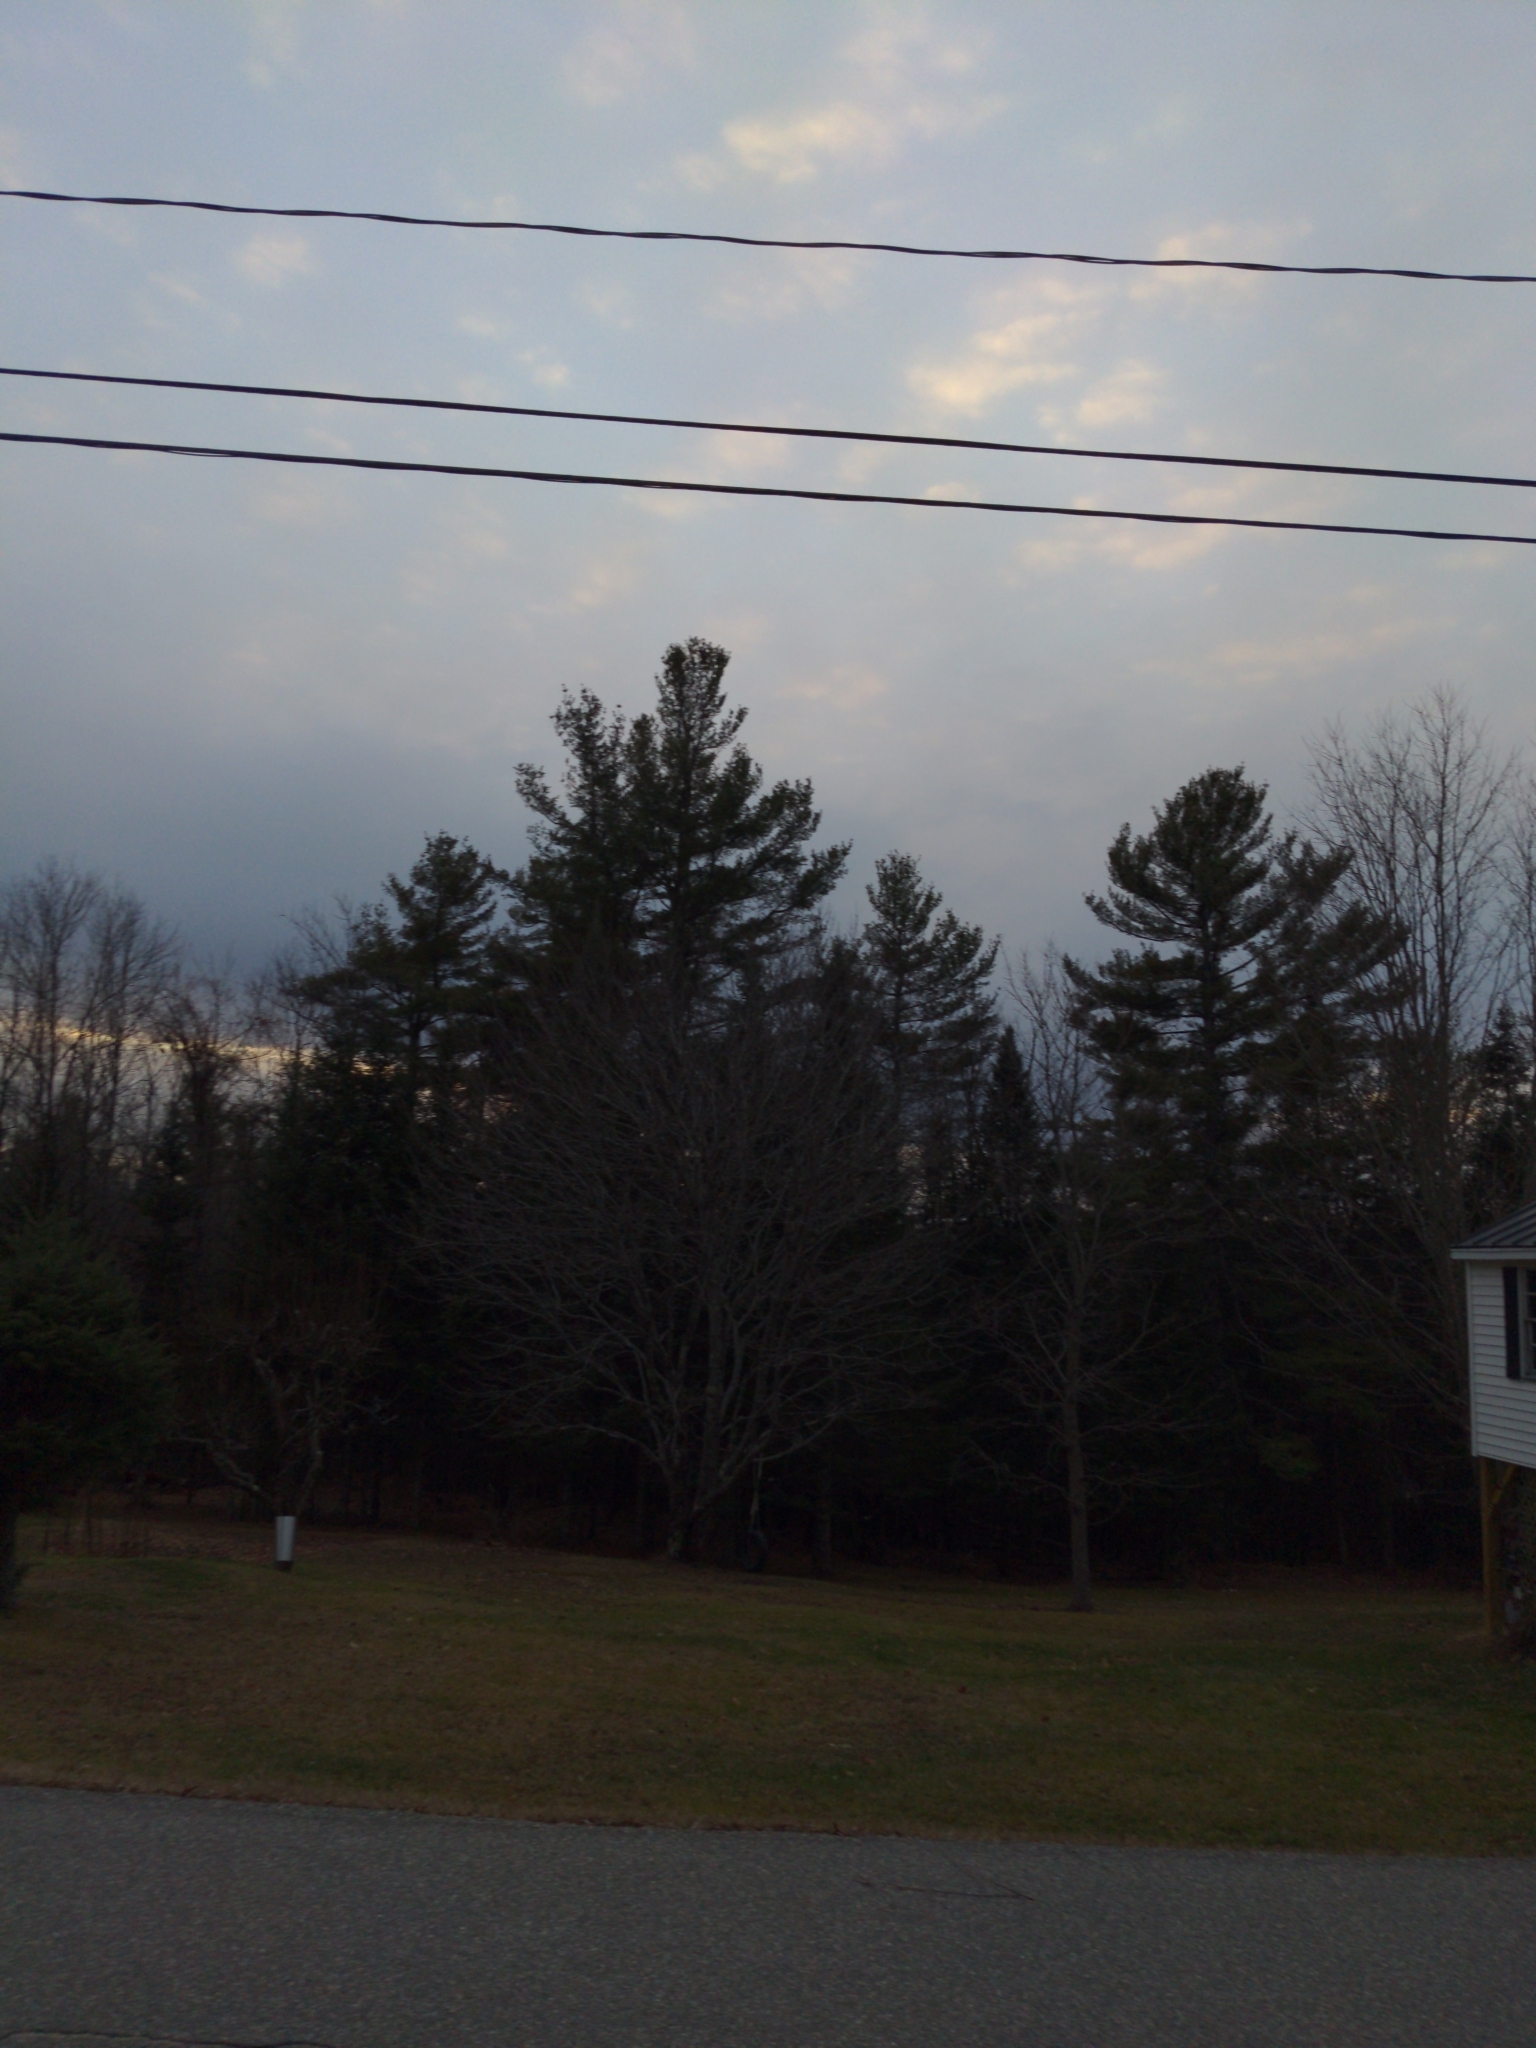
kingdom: Plantae
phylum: Tracheophyta
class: Pinopsida
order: Pinales
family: Pinaceae
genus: Pinus
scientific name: Pinus strobus
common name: Weymouth pine
